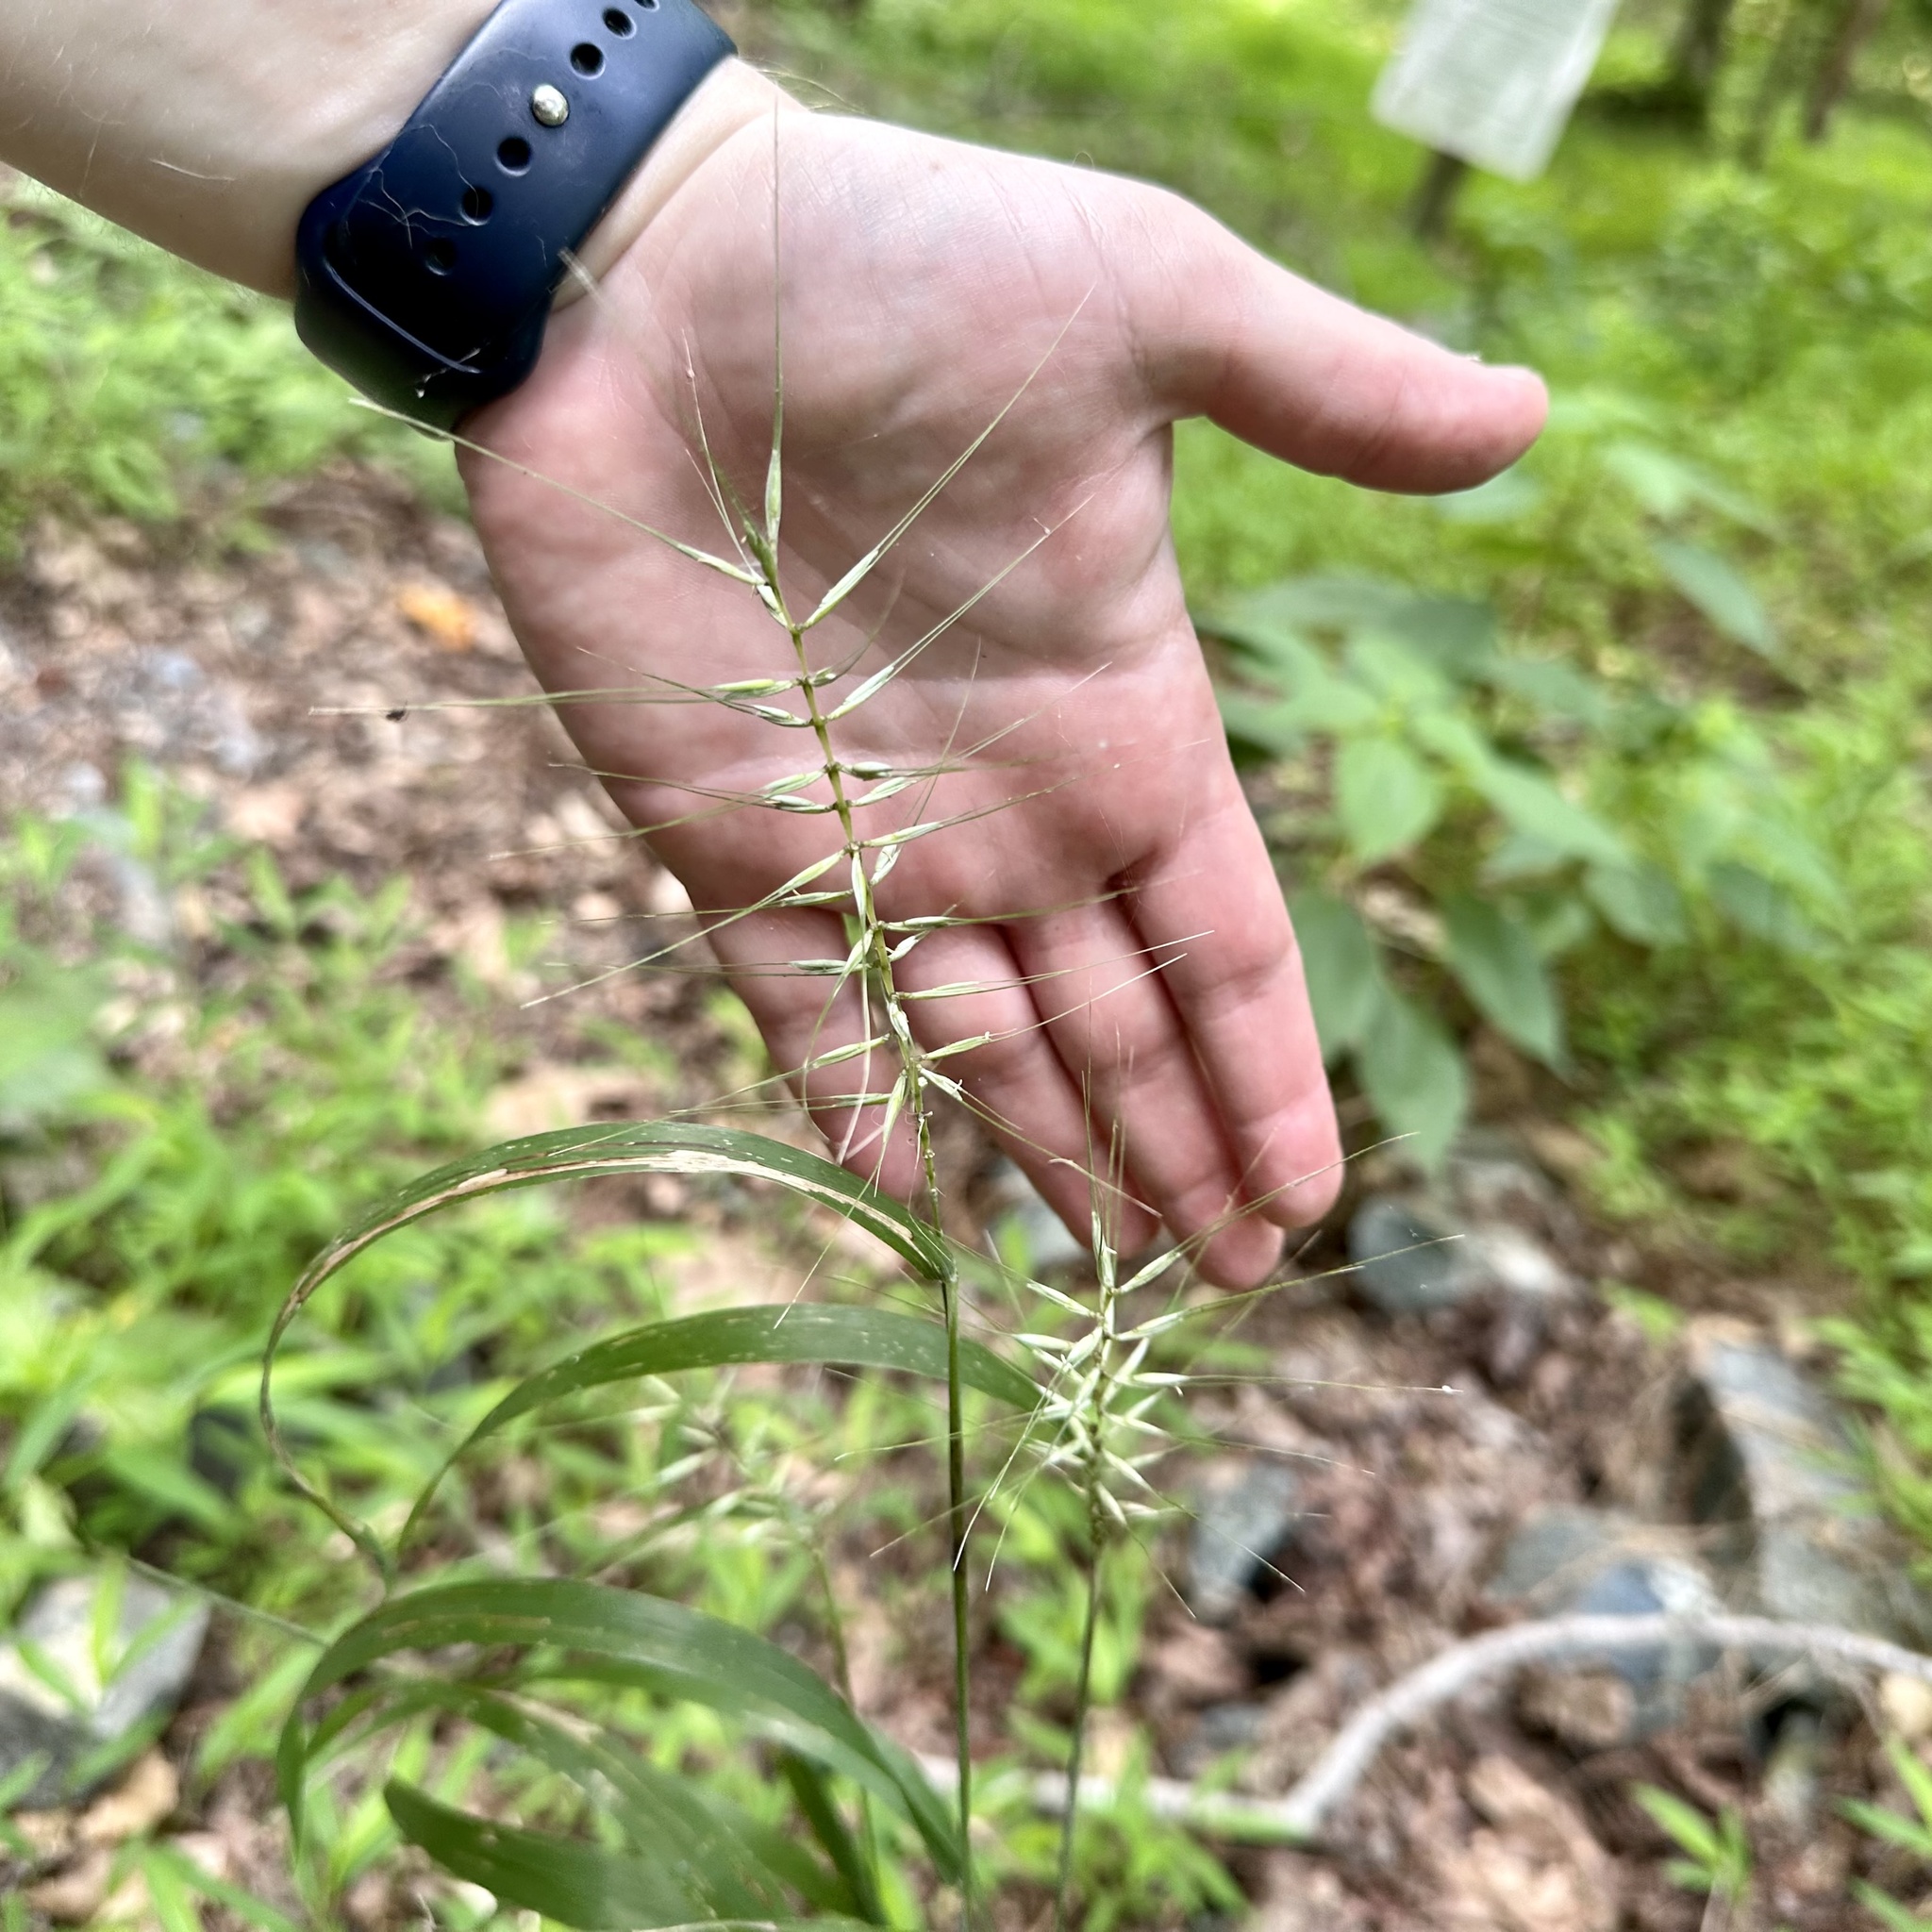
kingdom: Plantae
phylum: Tracheophyta
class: Liliopsida
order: Poales
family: Poaceae
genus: Elymus
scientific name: Elymus hystrix
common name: Bottlebrush grass
